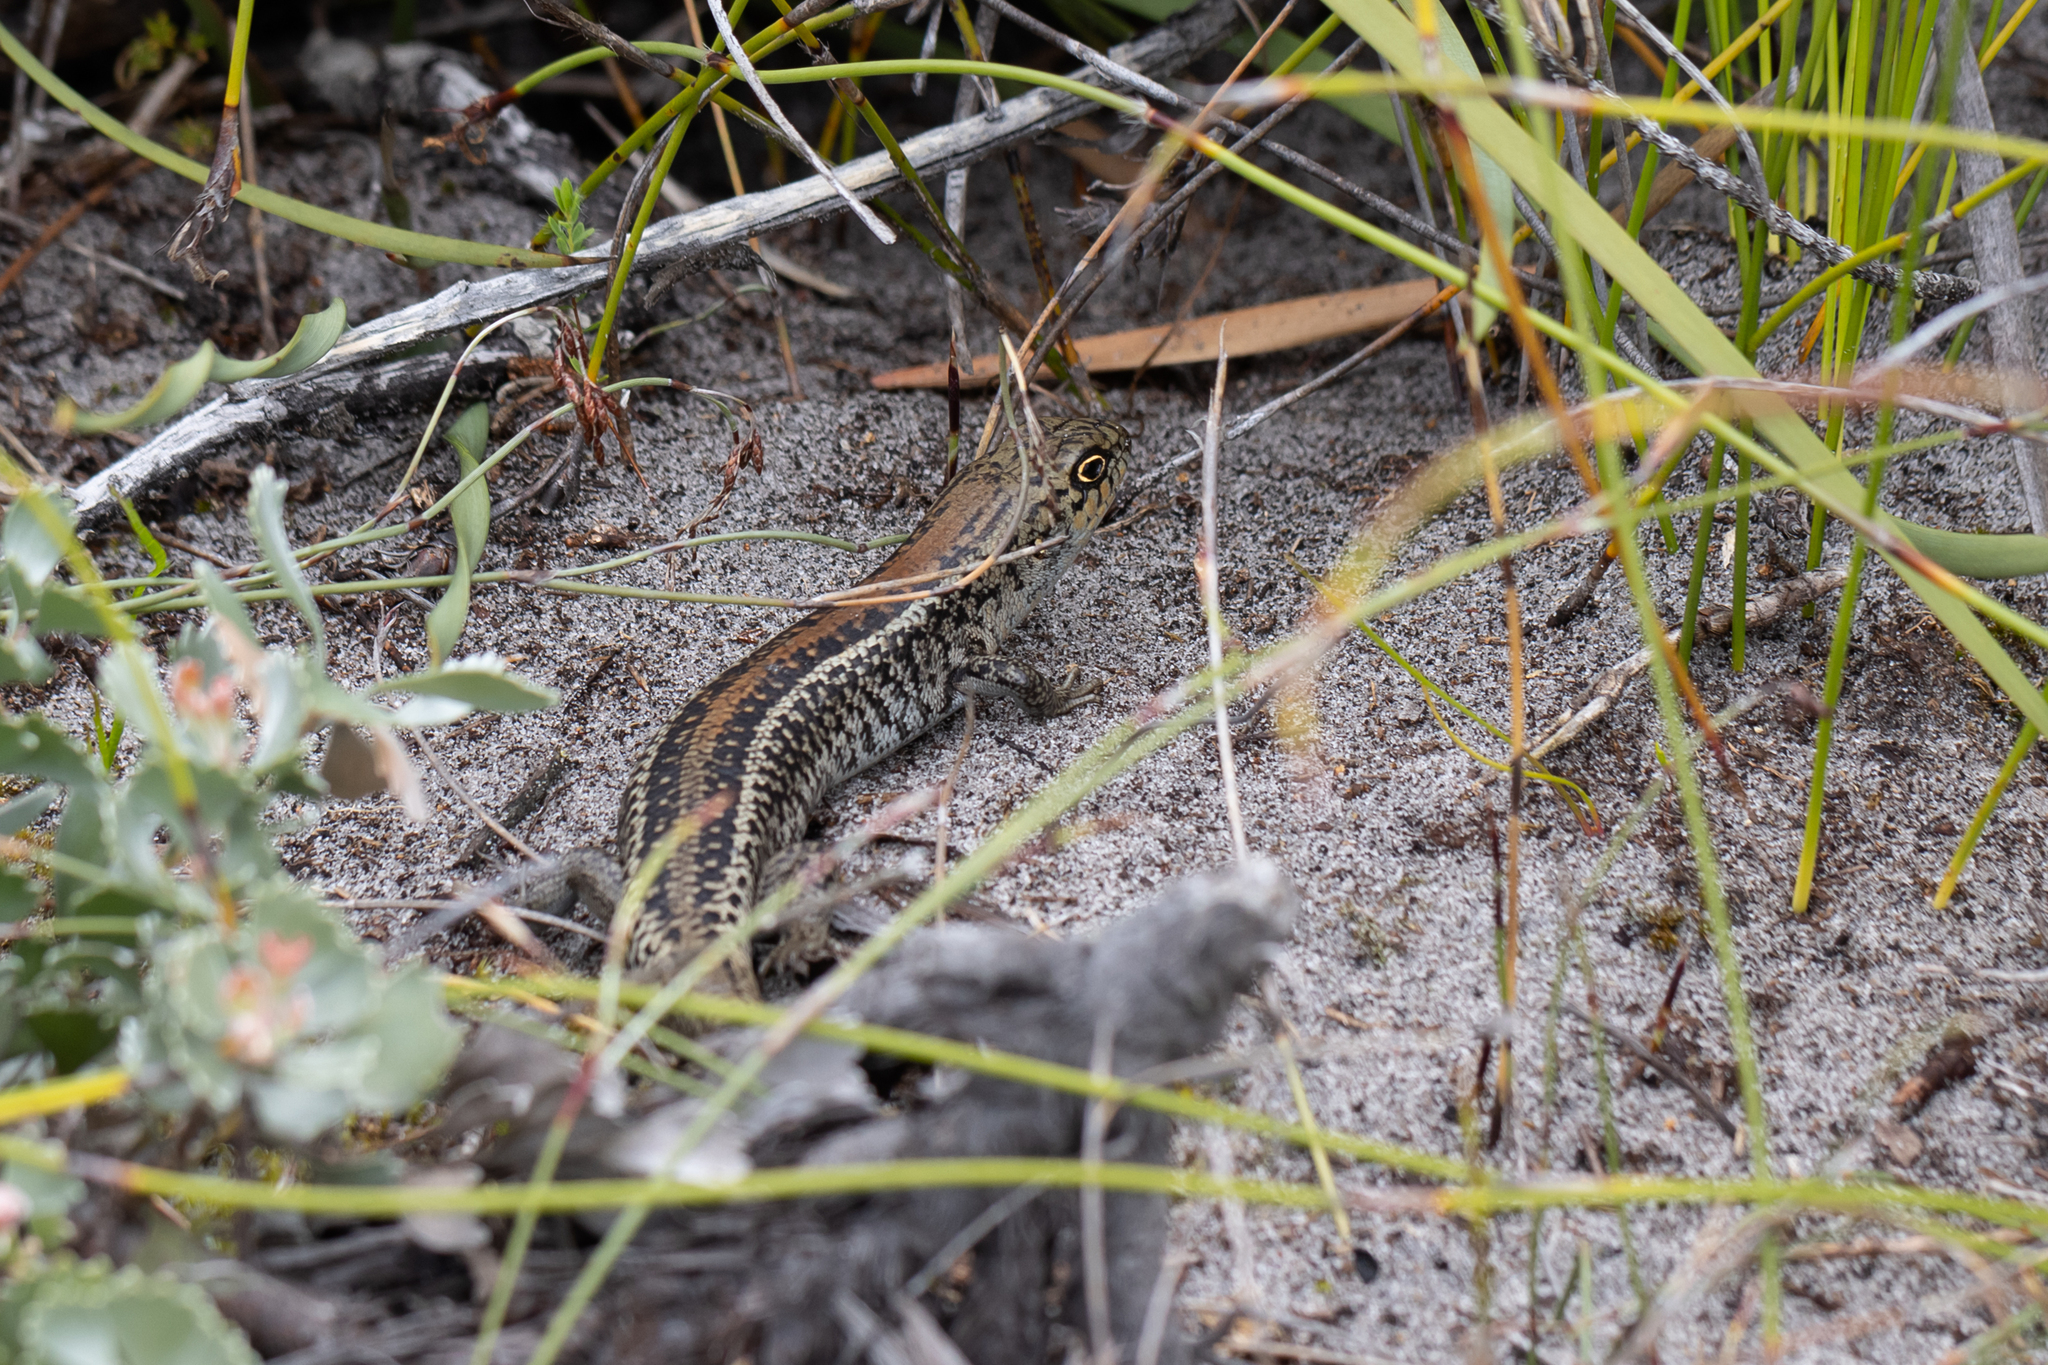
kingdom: Animalia
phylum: Chordata
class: Squamata
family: Scincidae
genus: Liopholis
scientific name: Liopholis pulchra
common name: South-western rock-skink
